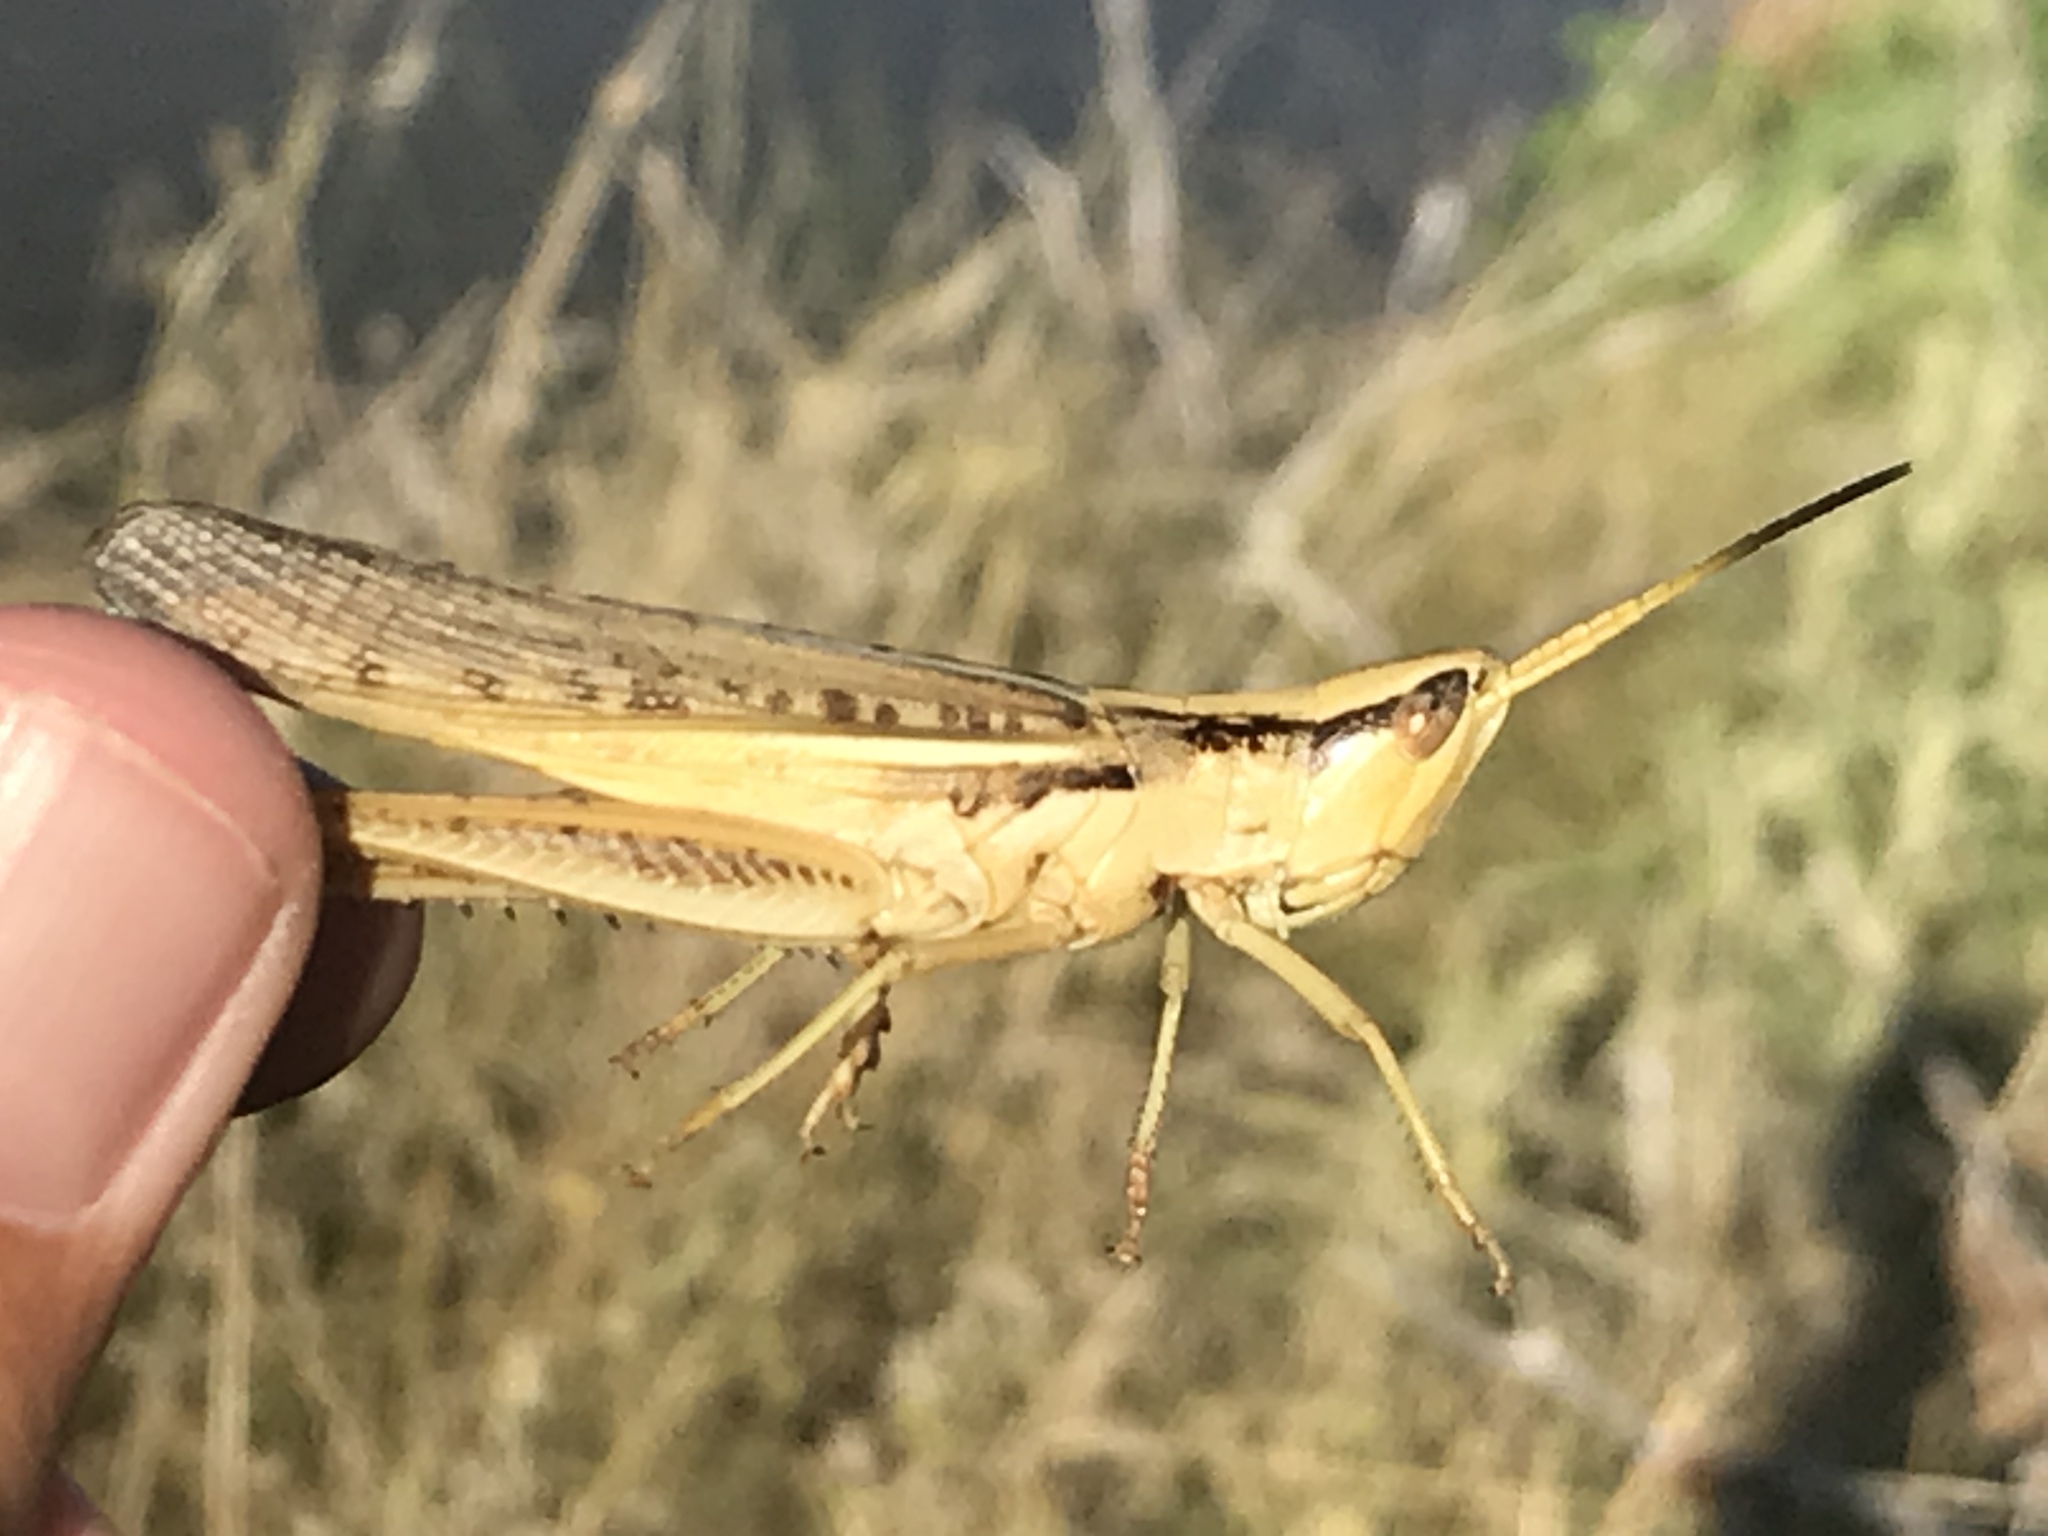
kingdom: Animalia
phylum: Arthropoda
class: Insecta
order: Orthoptera
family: Acrididae
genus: Mermiria
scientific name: Mermiria bivittata
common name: Two-striped mermiria grasshopper
